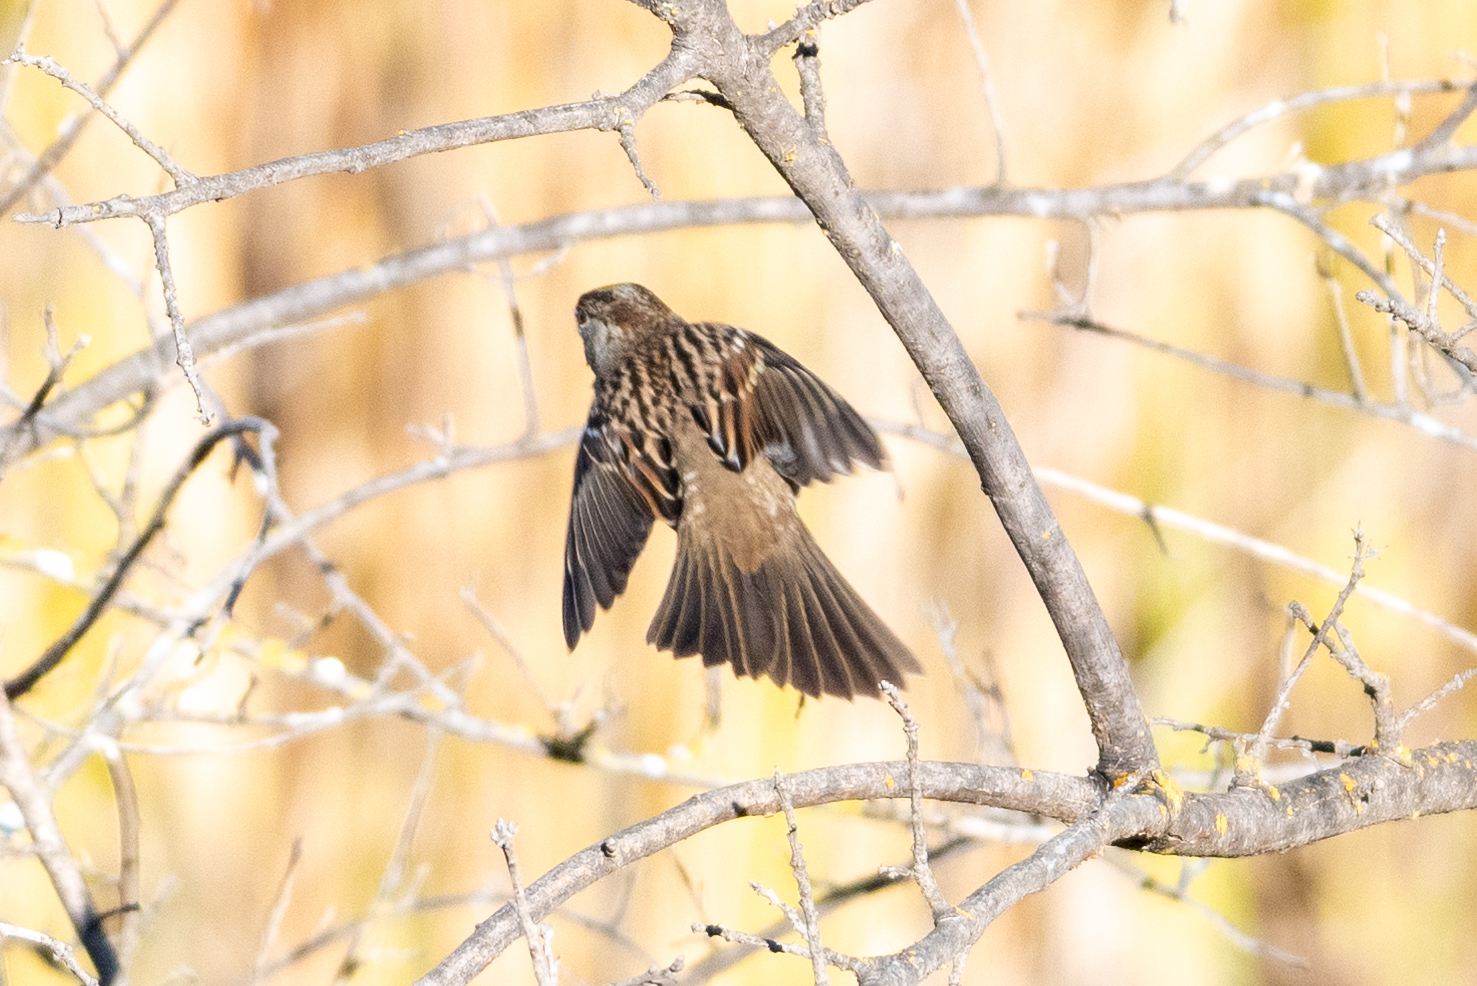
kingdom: Animalia
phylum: Chordata
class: Aves
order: Passeriformes
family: Passerellidae
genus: Zonotrichia
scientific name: Zonotrichia atricapilla
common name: Golden-crowned sparrow
